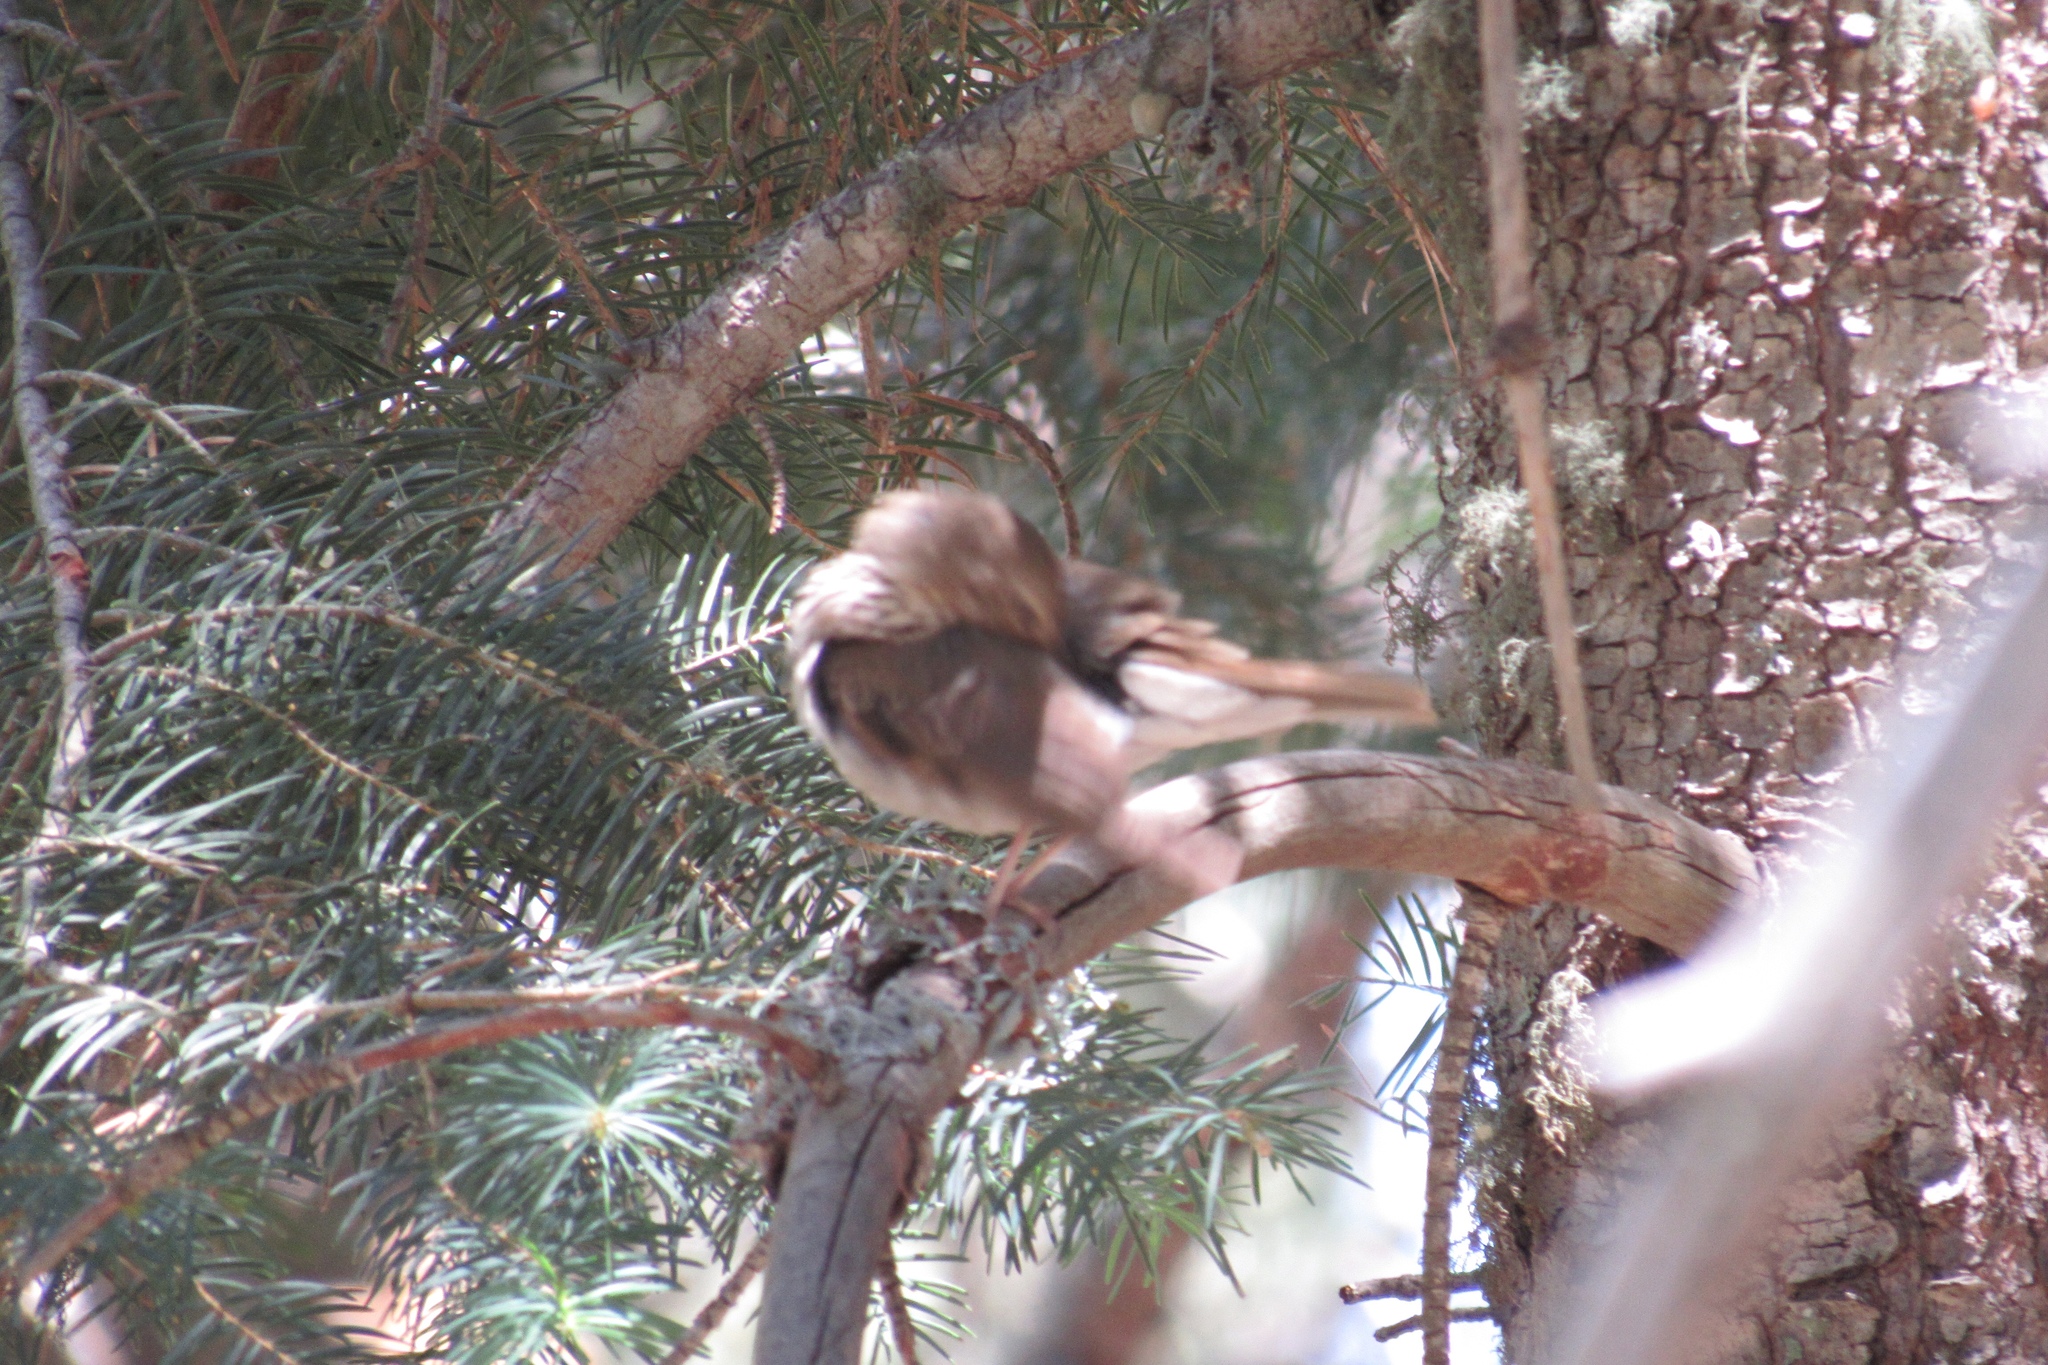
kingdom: Animalia
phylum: Chordata
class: Aves
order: Passeriformes
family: Turdidae
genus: Catharus
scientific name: Catharus guttatus
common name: Hermit thrush
